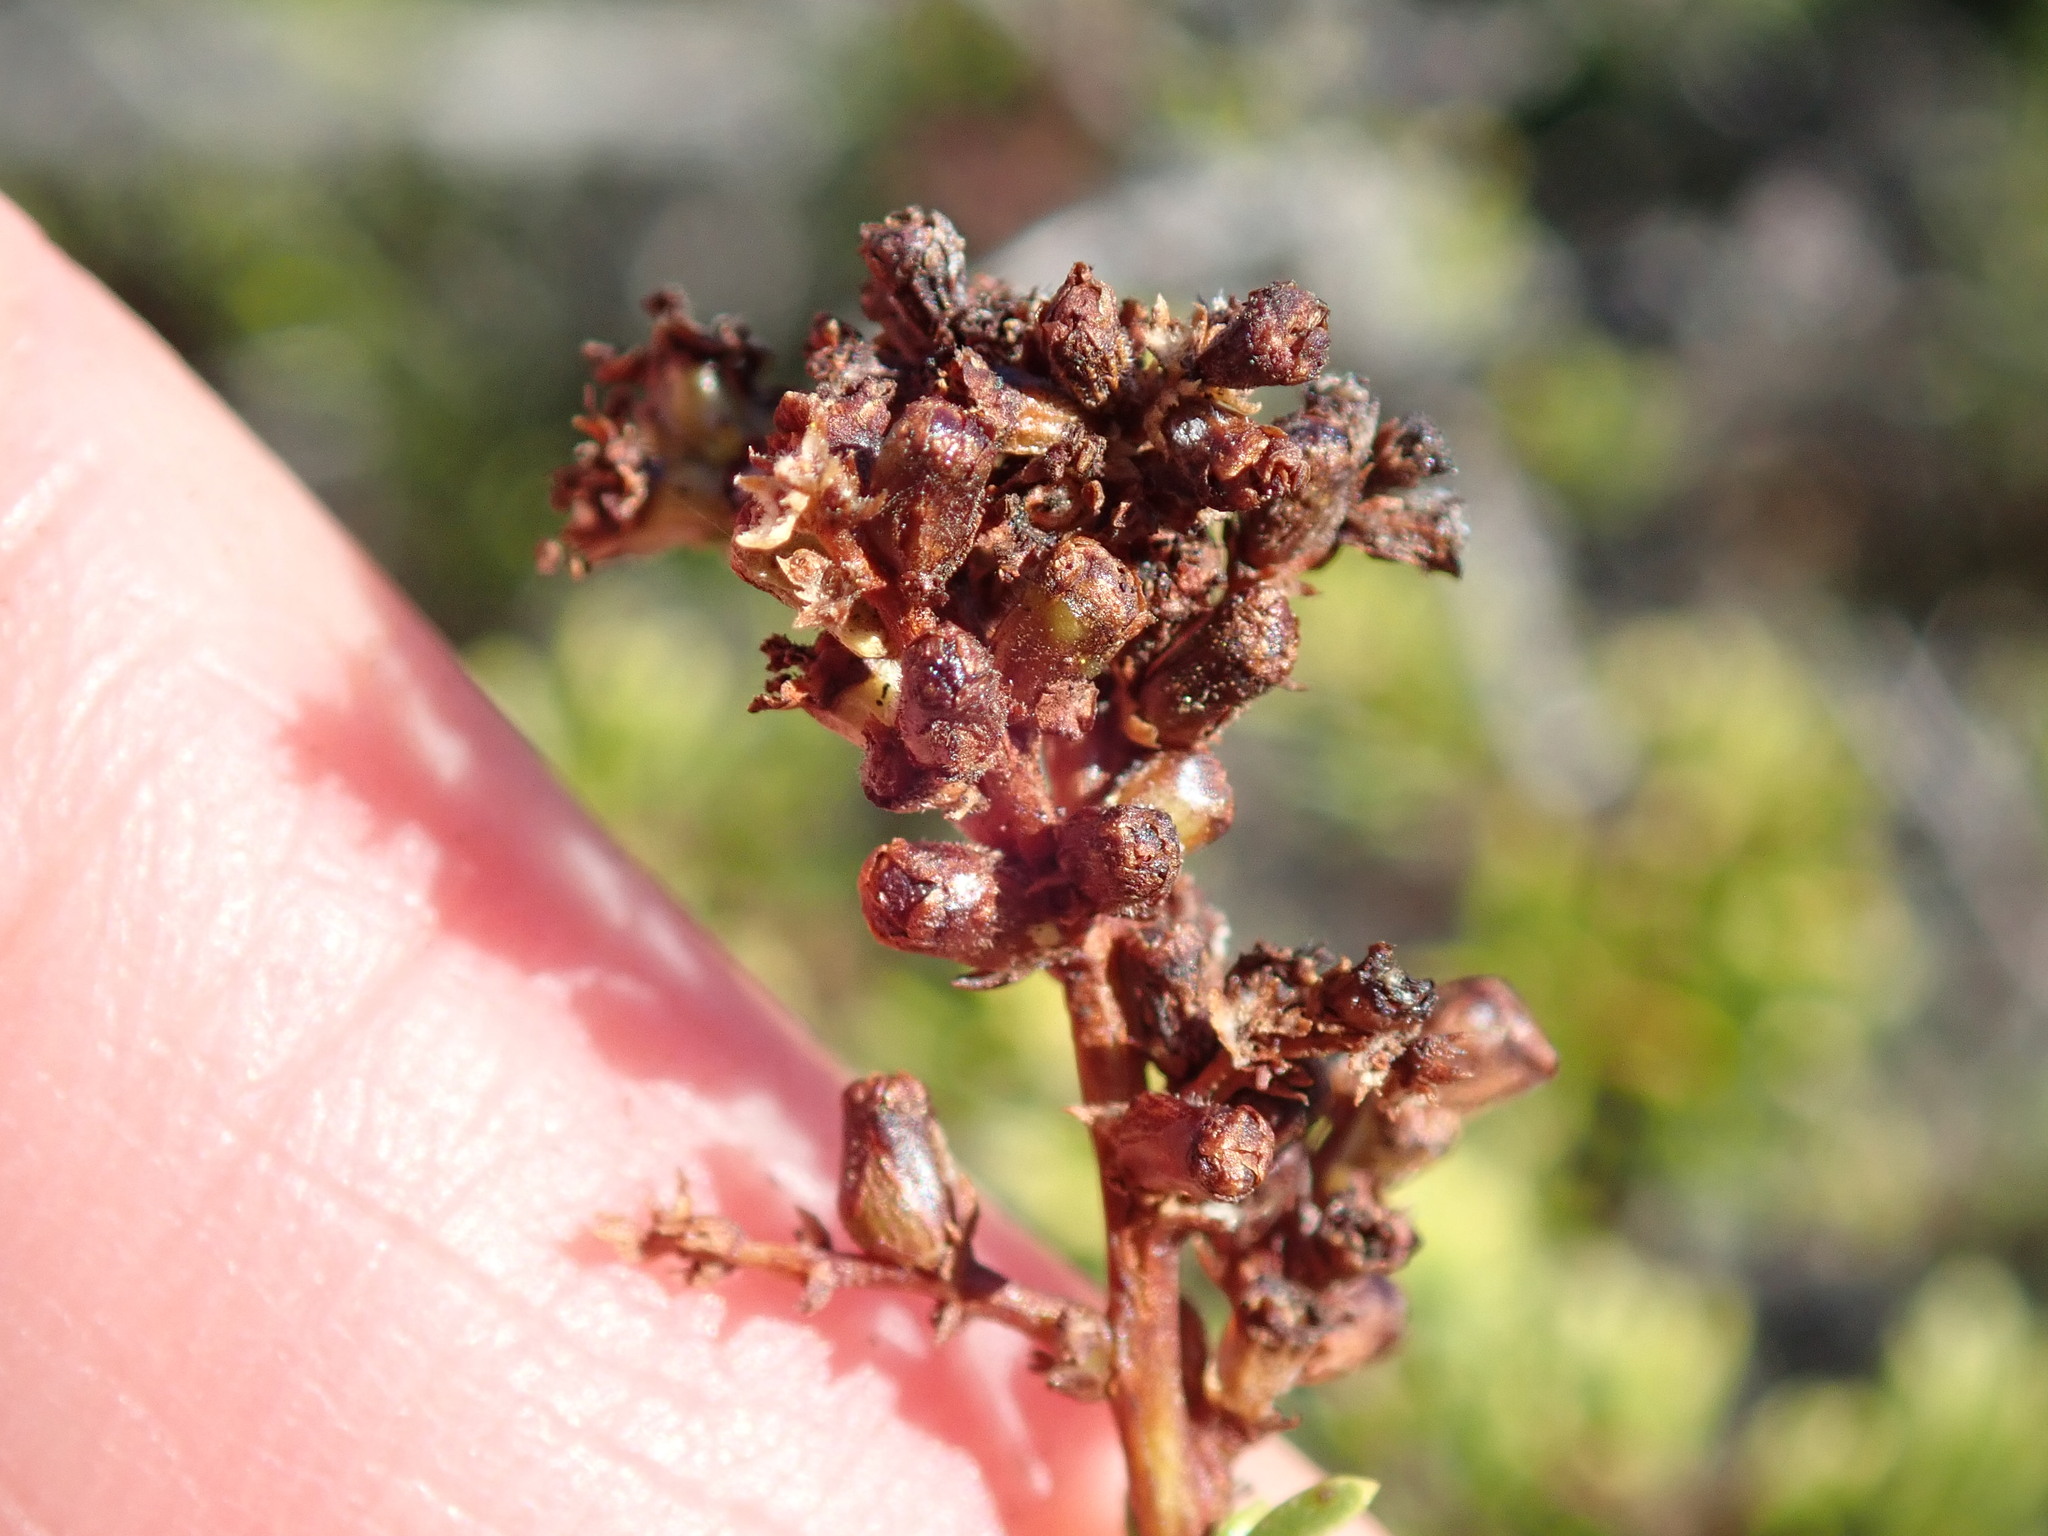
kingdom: Animalia
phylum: Arthropoda
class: Insecta
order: Diptera
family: Cecidomyiidae
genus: Asphondylia
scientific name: Asphondylia adenostoma
